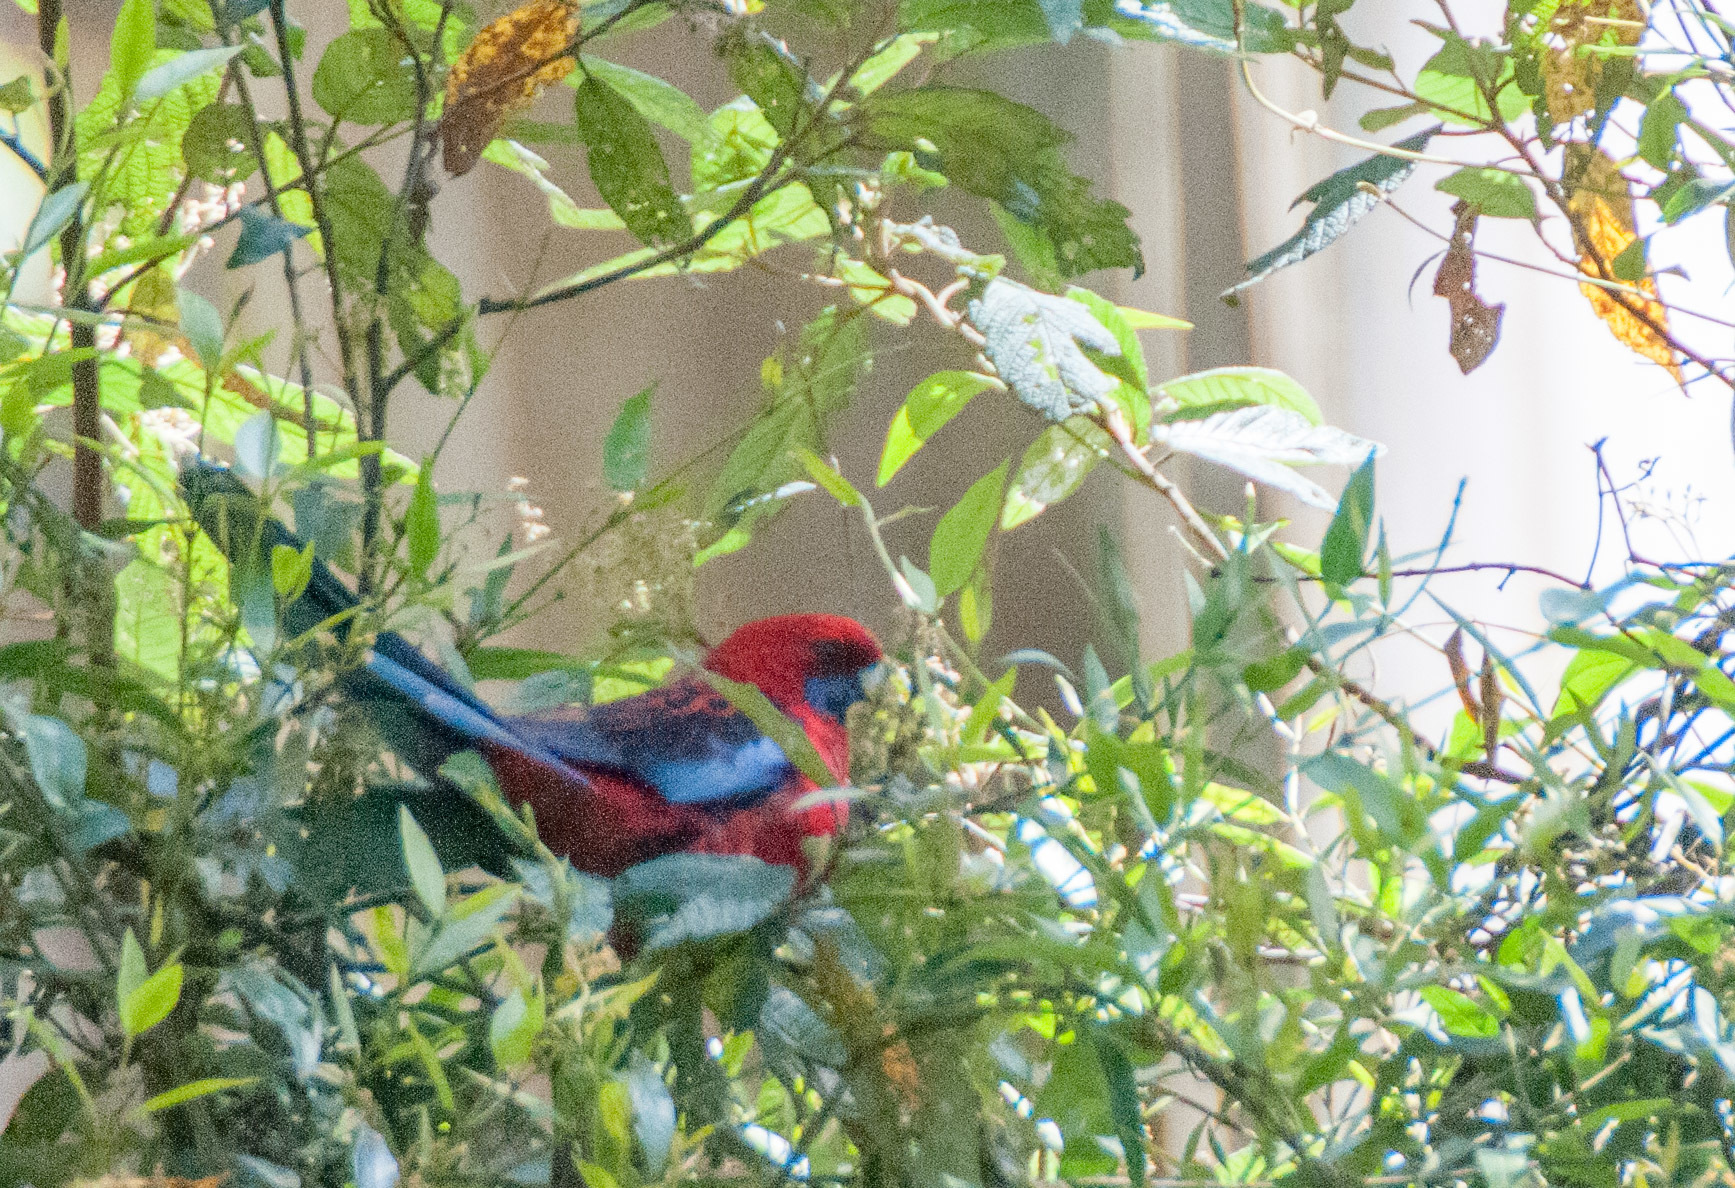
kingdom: Animalia
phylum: Chordata
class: Aves
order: Psittaciformes
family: Psittacidae
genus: Platycercus
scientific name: Platycercus elegans
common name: Crimson rosella
